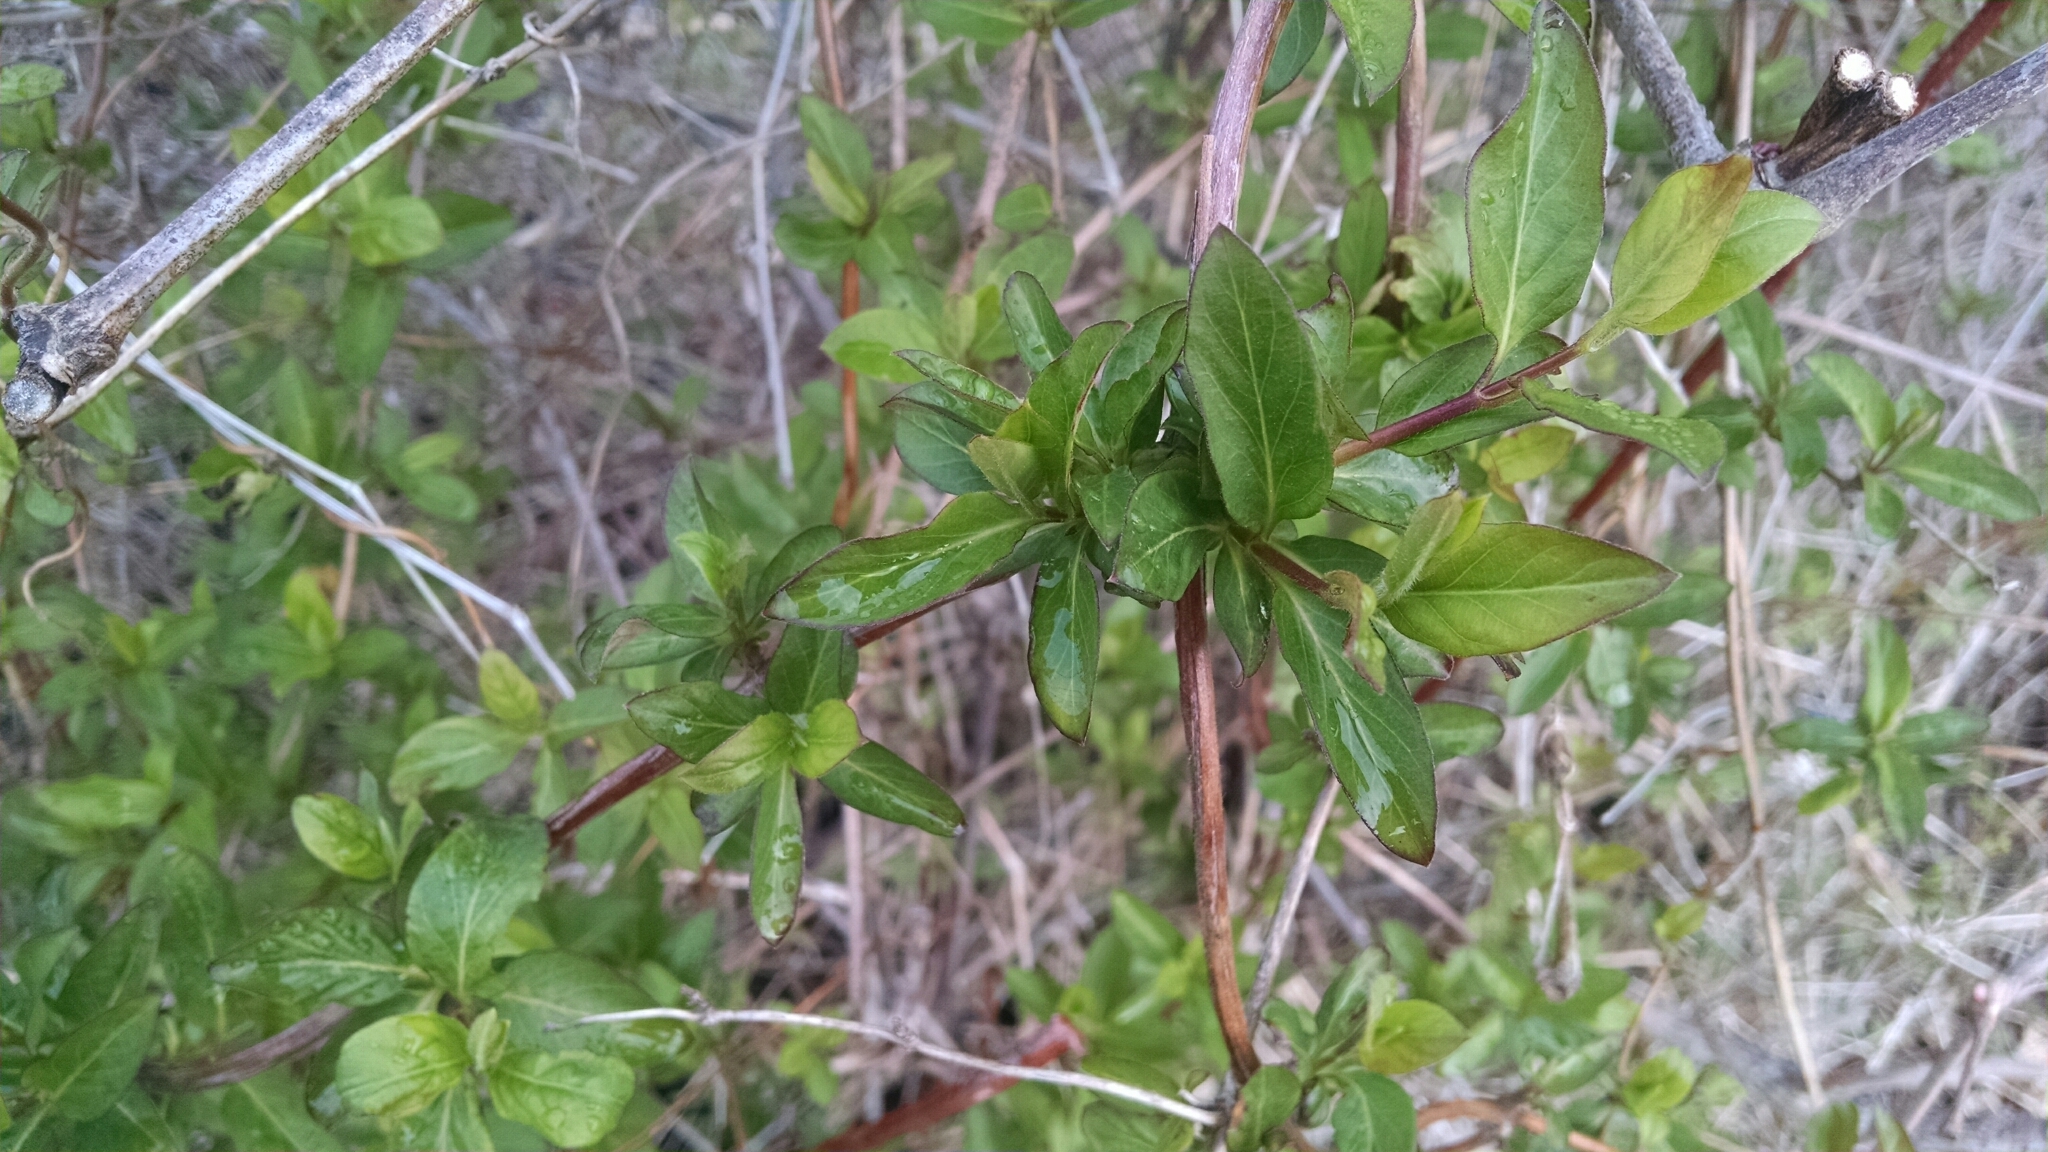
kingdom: Plantae
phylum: Tracheophyta
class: Magnoliopsida
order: Dipsacales
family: Caprifoliaceae
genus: Lonicera
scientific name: Lonicera japonica
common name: Japanese honeysuckle
